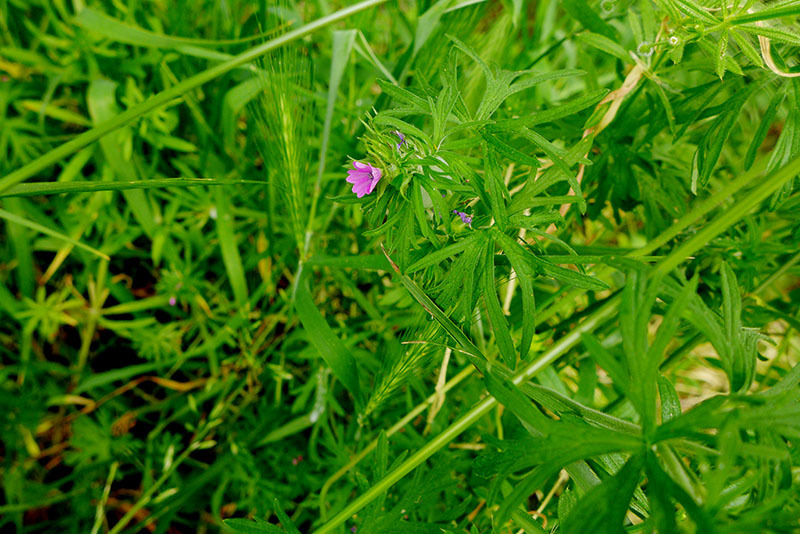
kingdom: Plantae
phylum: Tracheophyta
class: Magnoliopsida
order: Geraniales
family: Geraniaceae
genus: Geranium
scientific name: Geranium dissectum
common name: Cut-leaved crane's-bill
